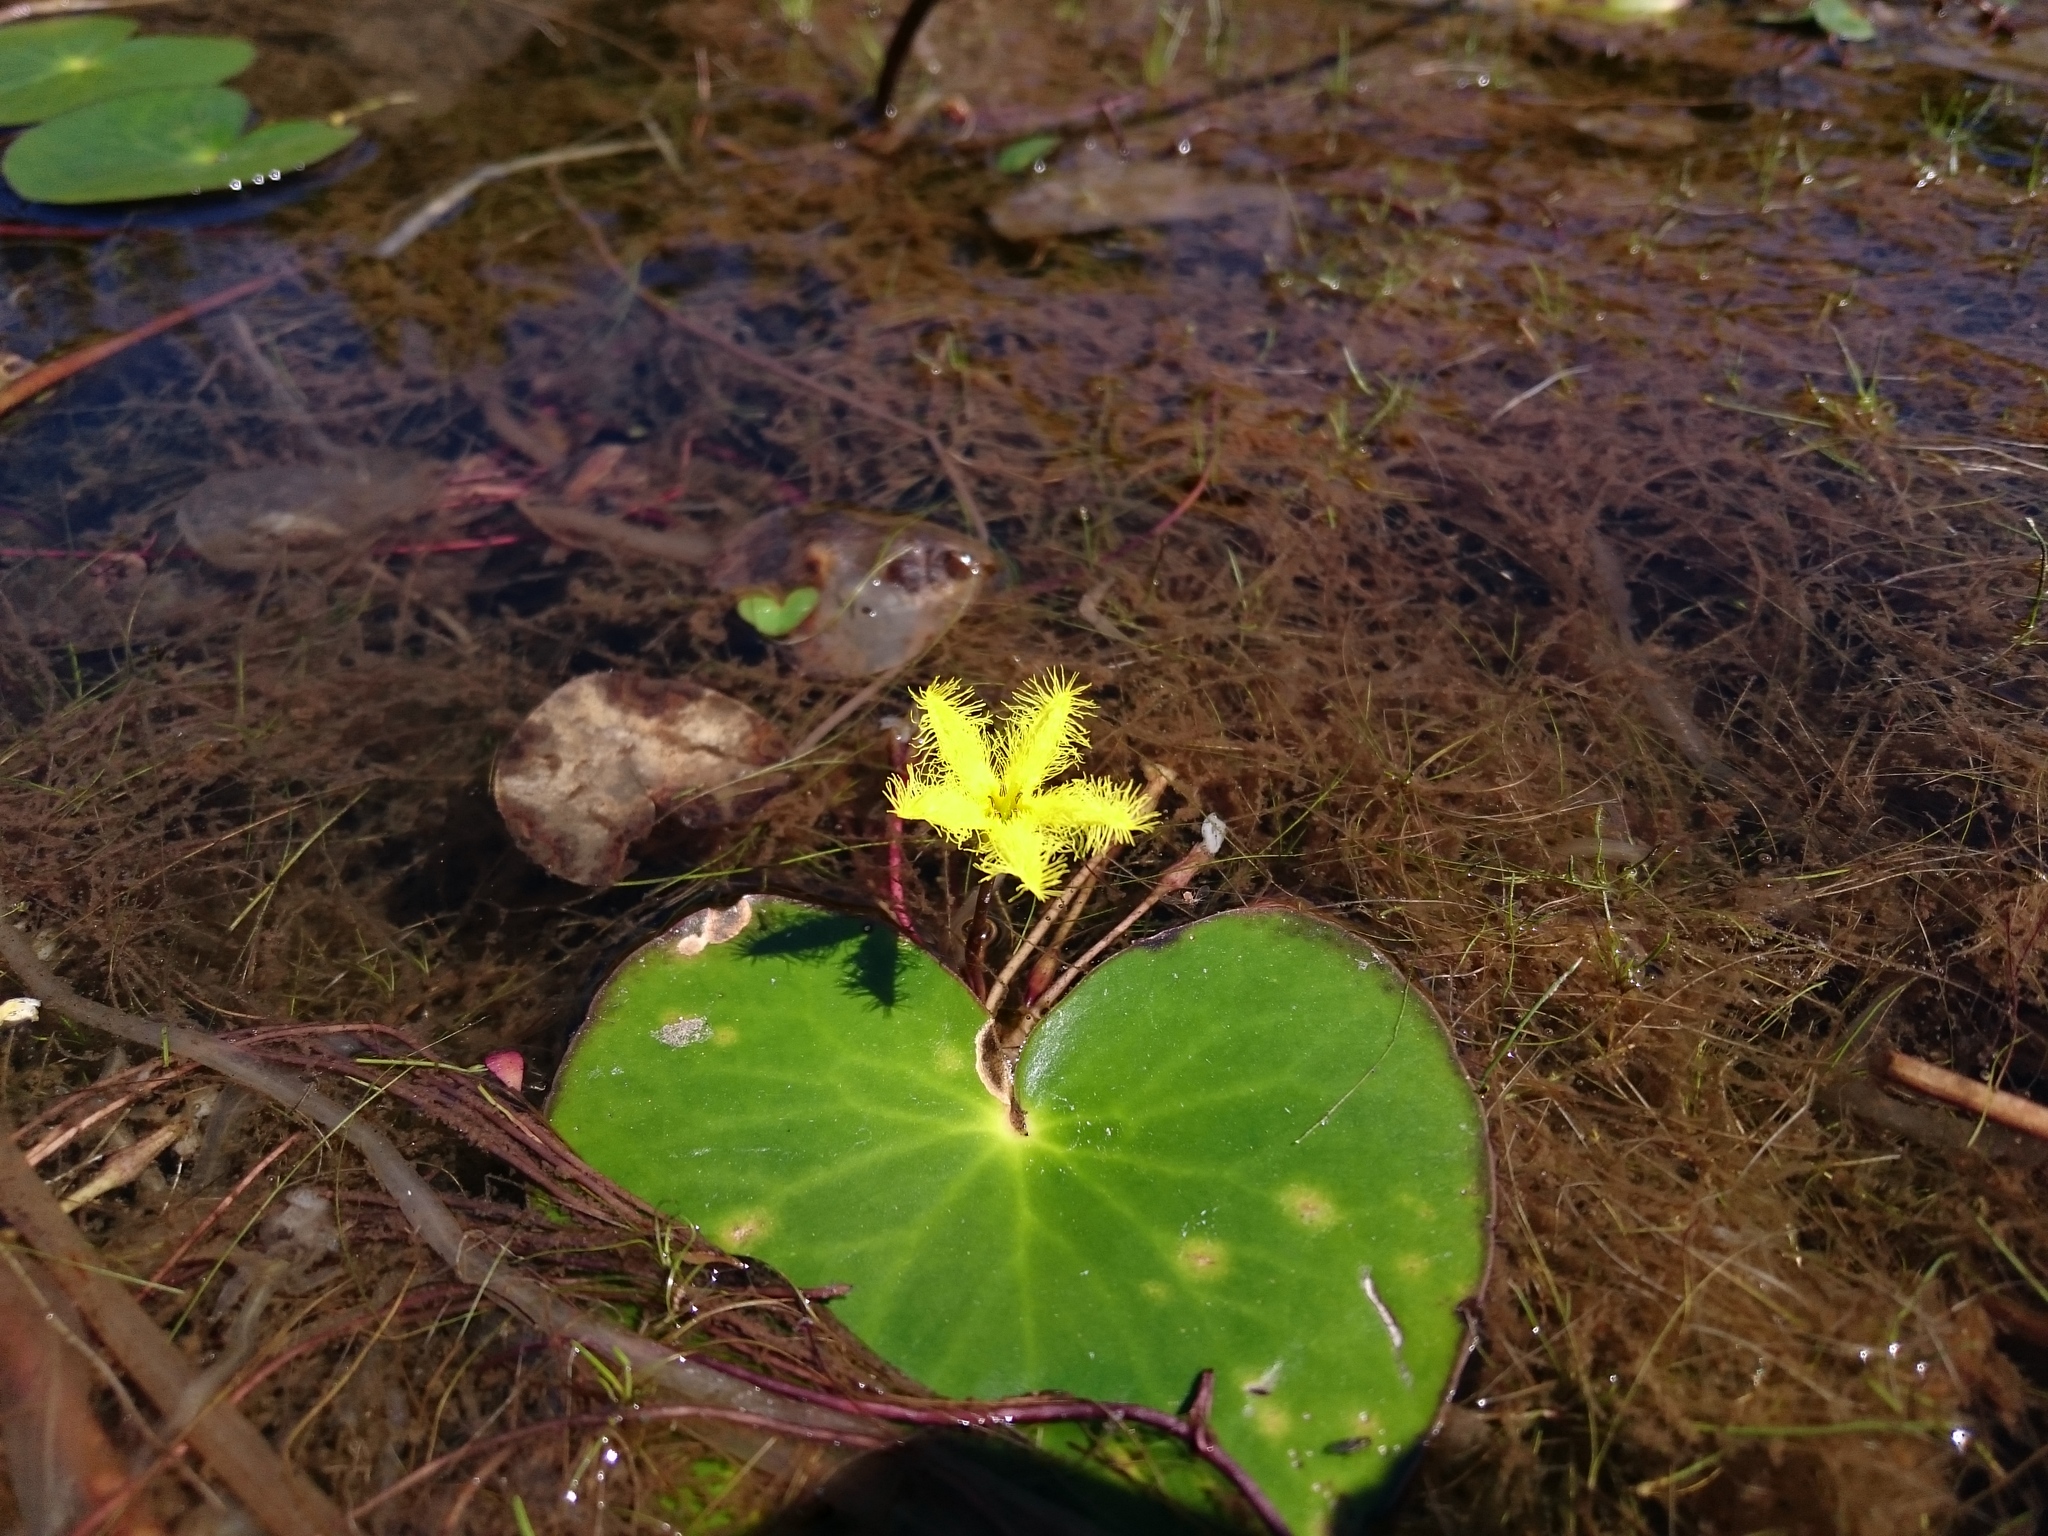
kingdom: Plantae
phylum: Tracheophyta
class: Magnoliopsida
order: Asterales
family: Menyanthaceae
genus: Nymphoides
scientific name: Nymphoides thunbergiana
